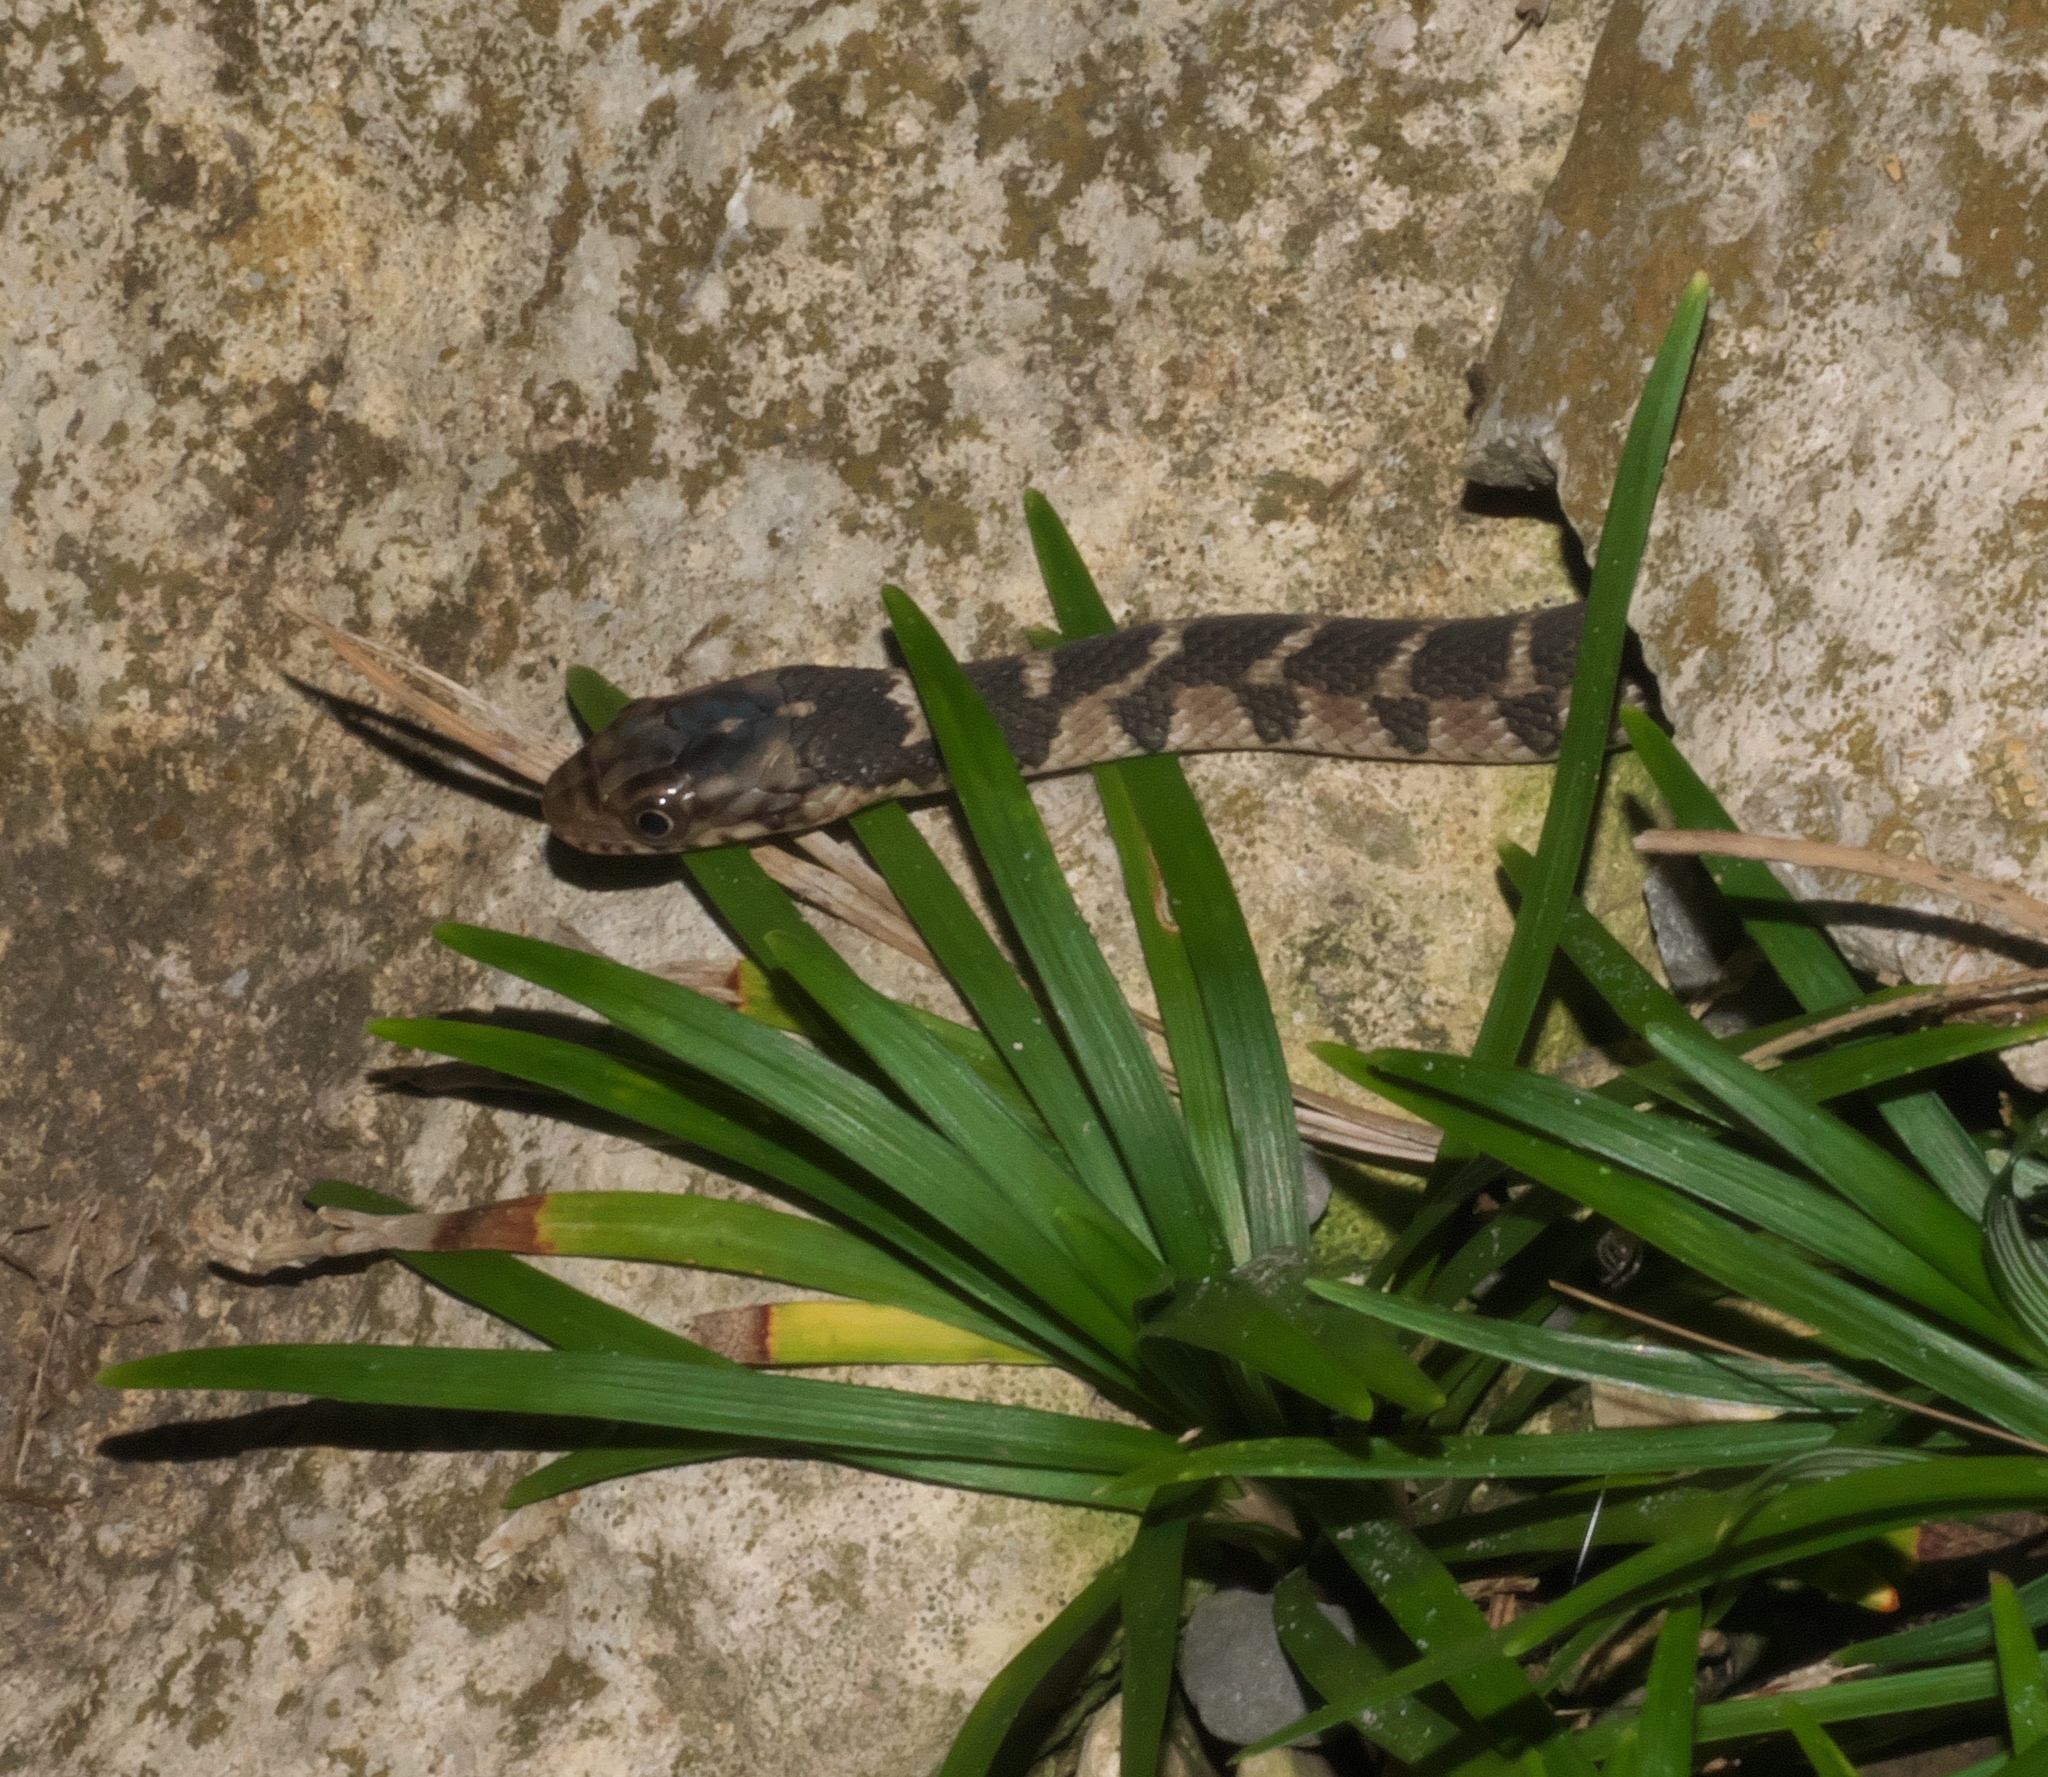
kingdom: Animalia
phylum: Chordata
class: Squamata
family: Colubridae
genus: Nerodia
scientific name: Nerodia erythrogaster
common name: Plainbelly water snake
